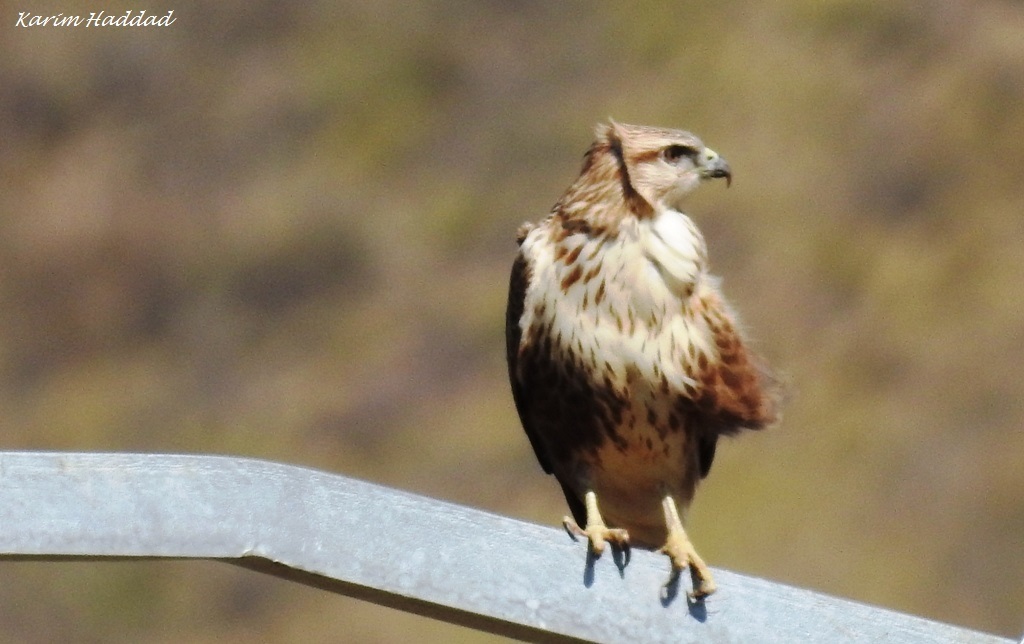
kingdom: Animalia
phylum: Chordata
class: Aves
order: Accipitriformes
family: Accipitridae
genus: Buteo
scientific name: Buteo rufinus
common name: Long-legged buzzard
